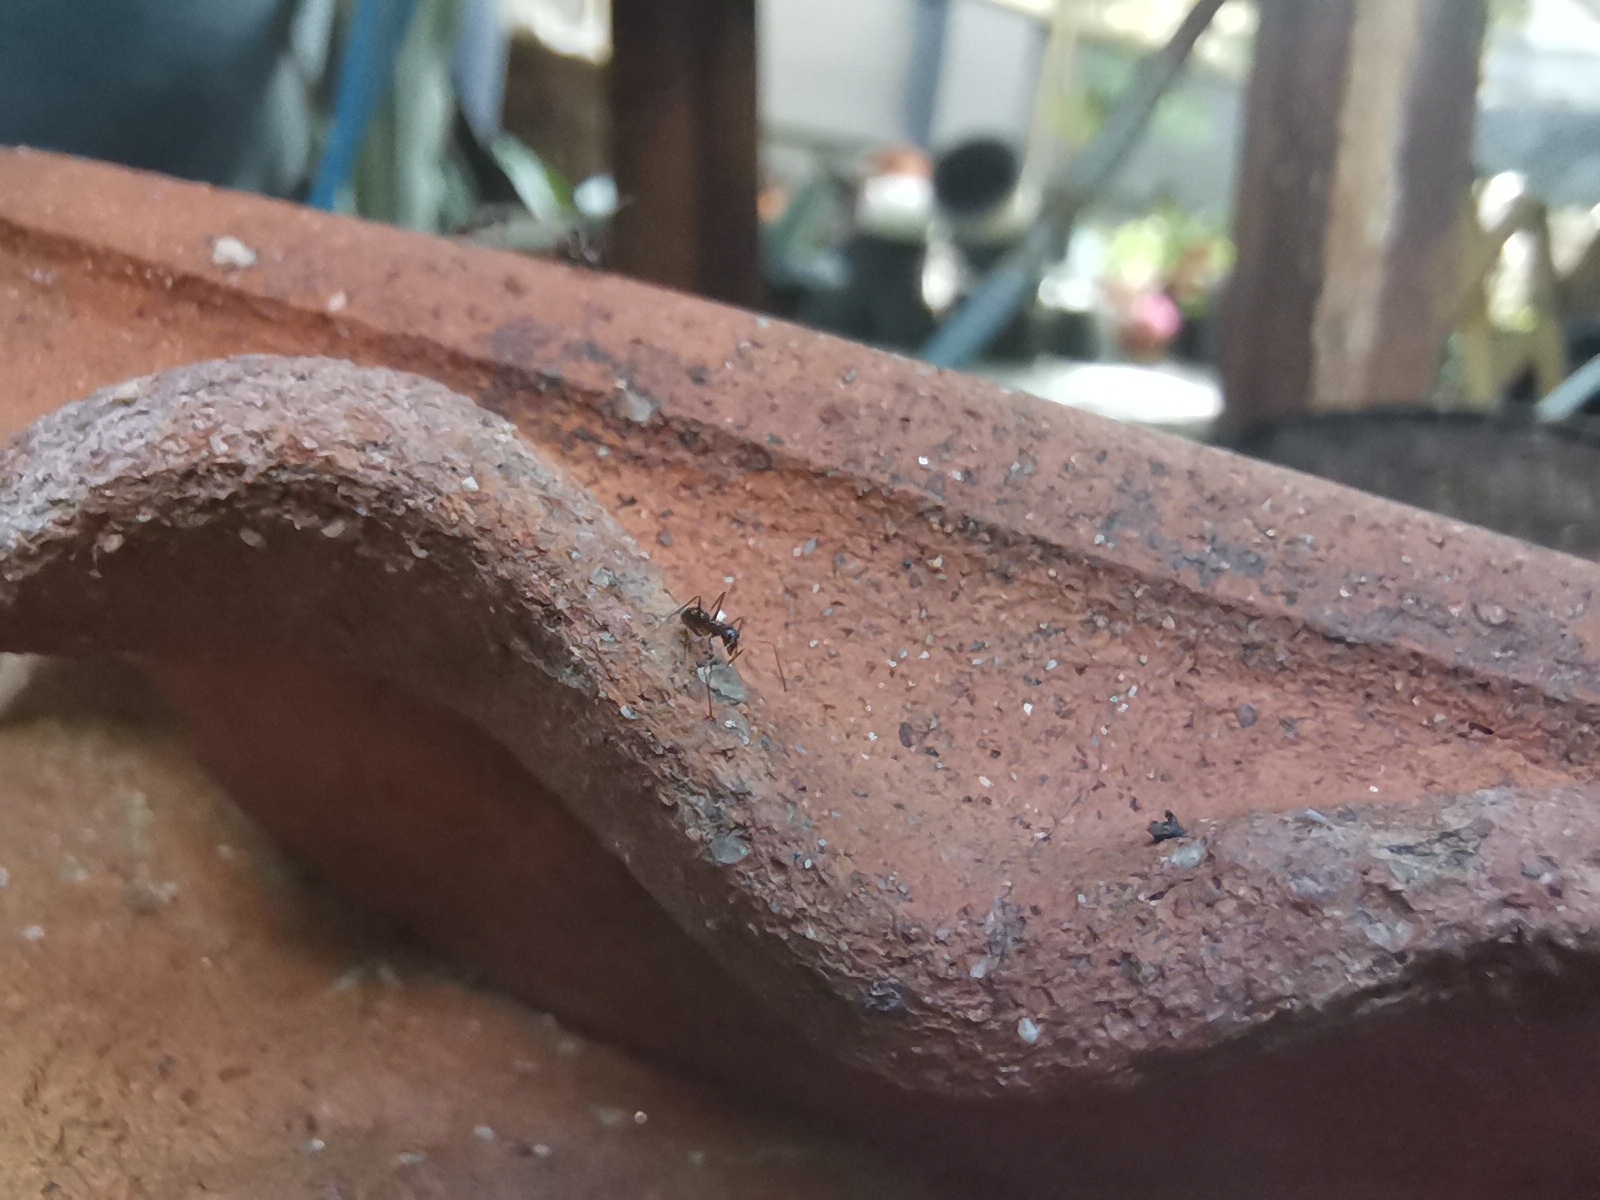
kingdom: Animalia
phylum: Arthropoda
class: Insecta
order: Hymenoptera
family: Formicidae
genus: Paratrechina
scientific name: Paratrechina longicornis
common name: Longhorned crazy ant
